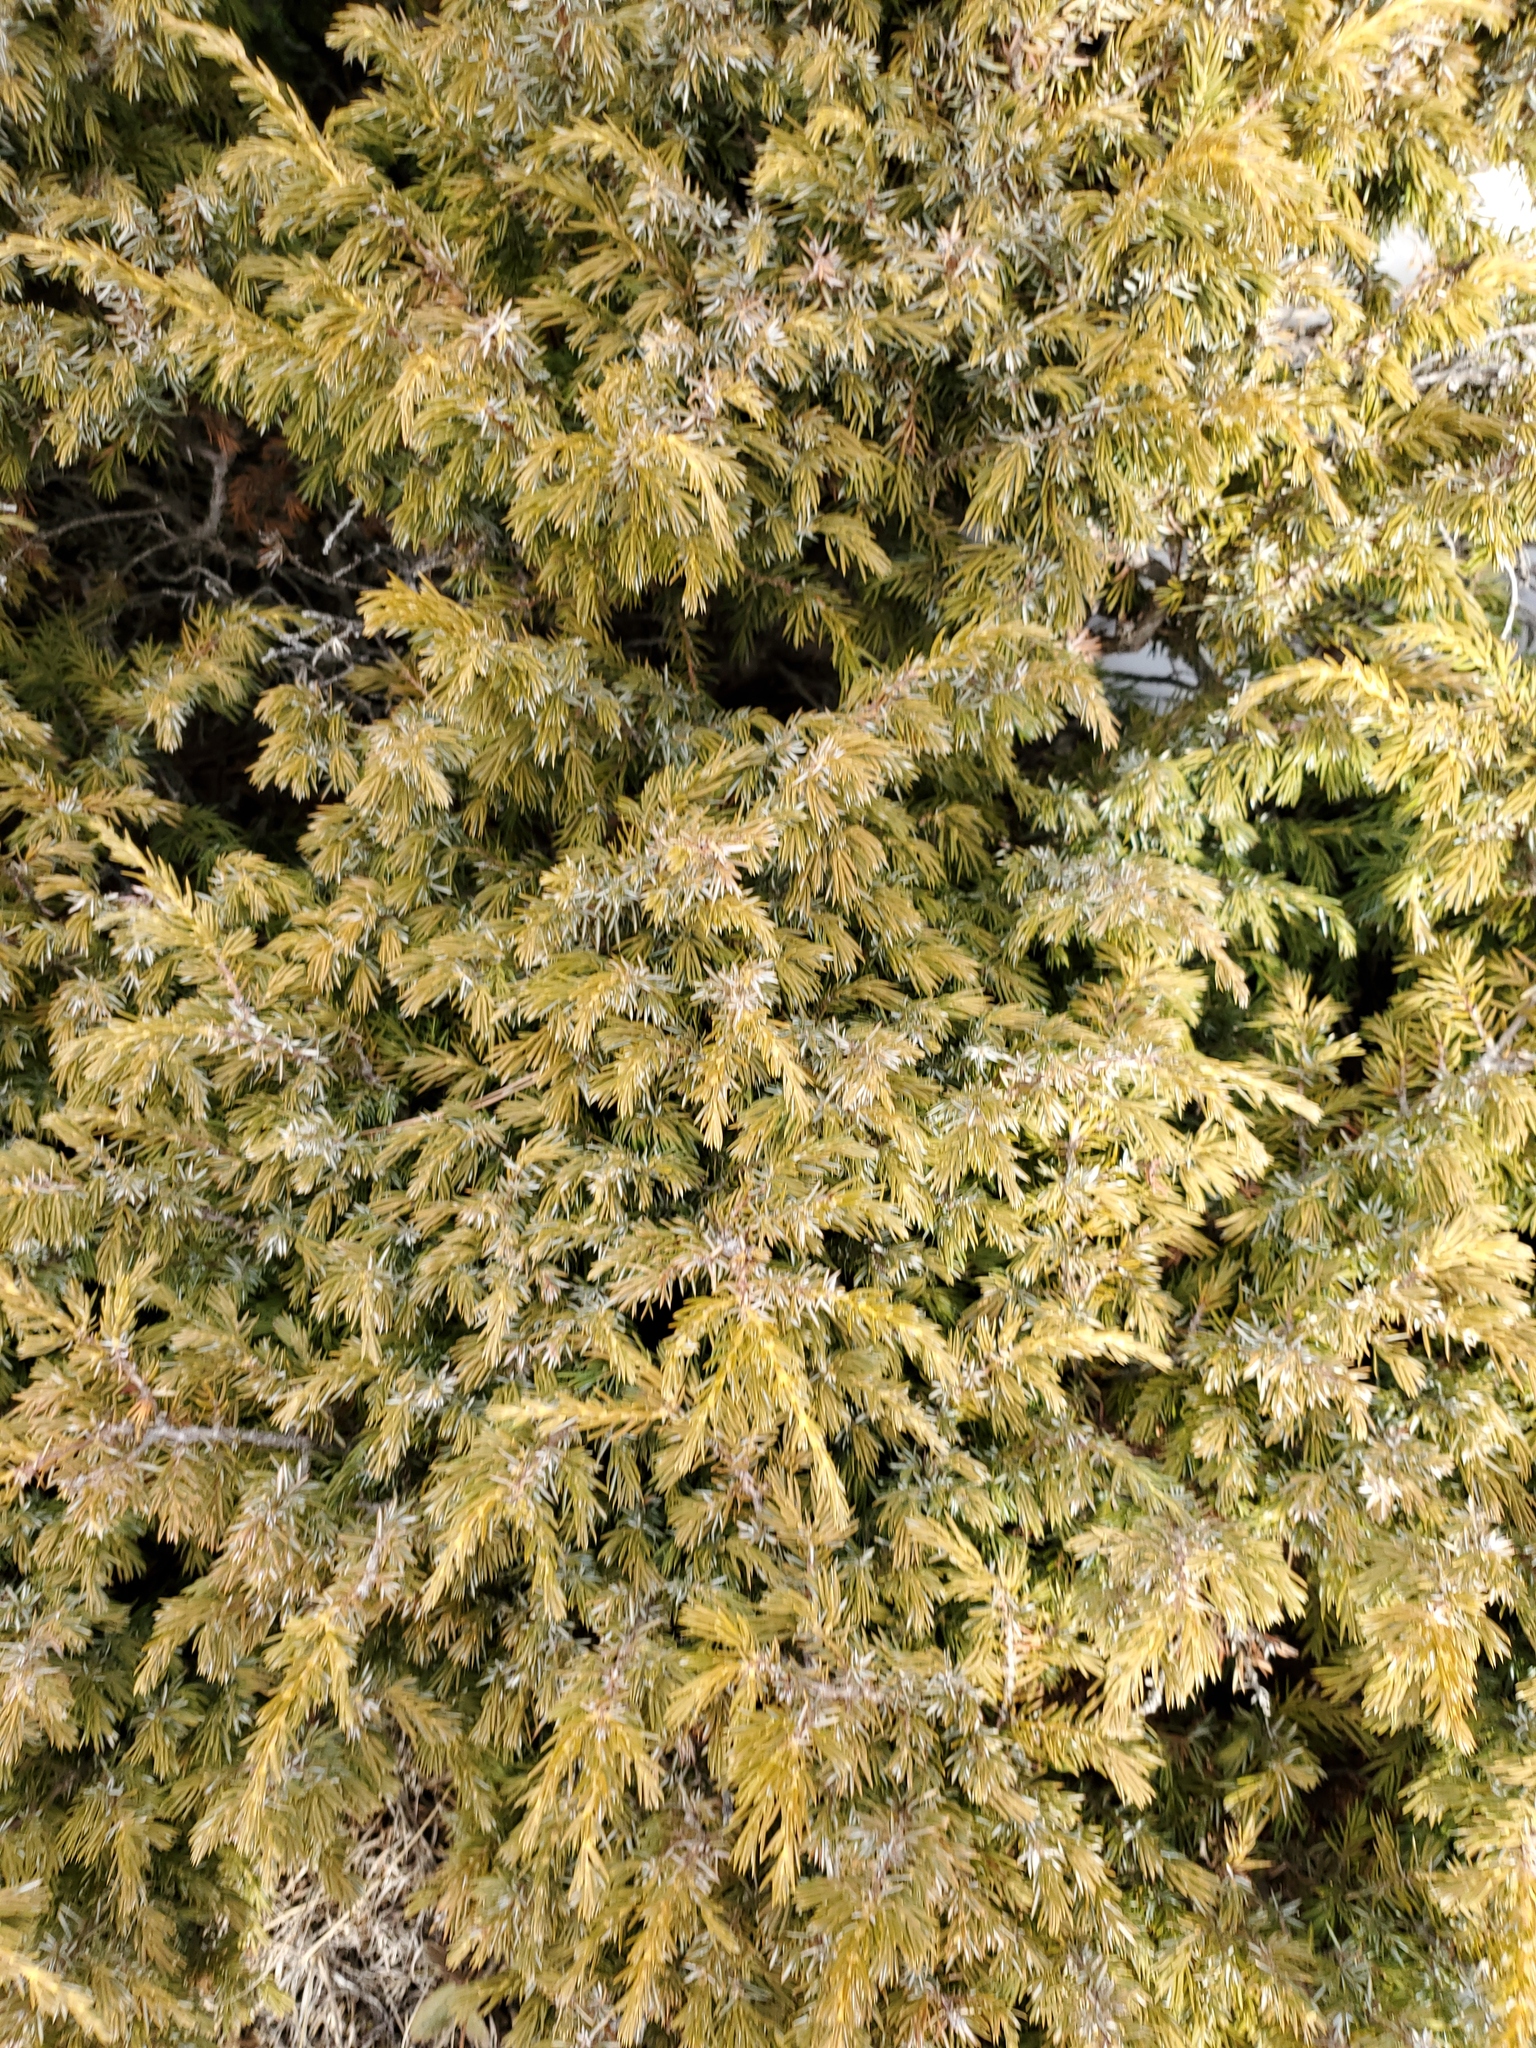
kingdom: Plantae
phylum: Tracheophyta
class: Pinopsida
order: Pinales
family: Cupressaceae
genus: Juniperus
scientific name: Juniperus communis
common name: Common juniper
